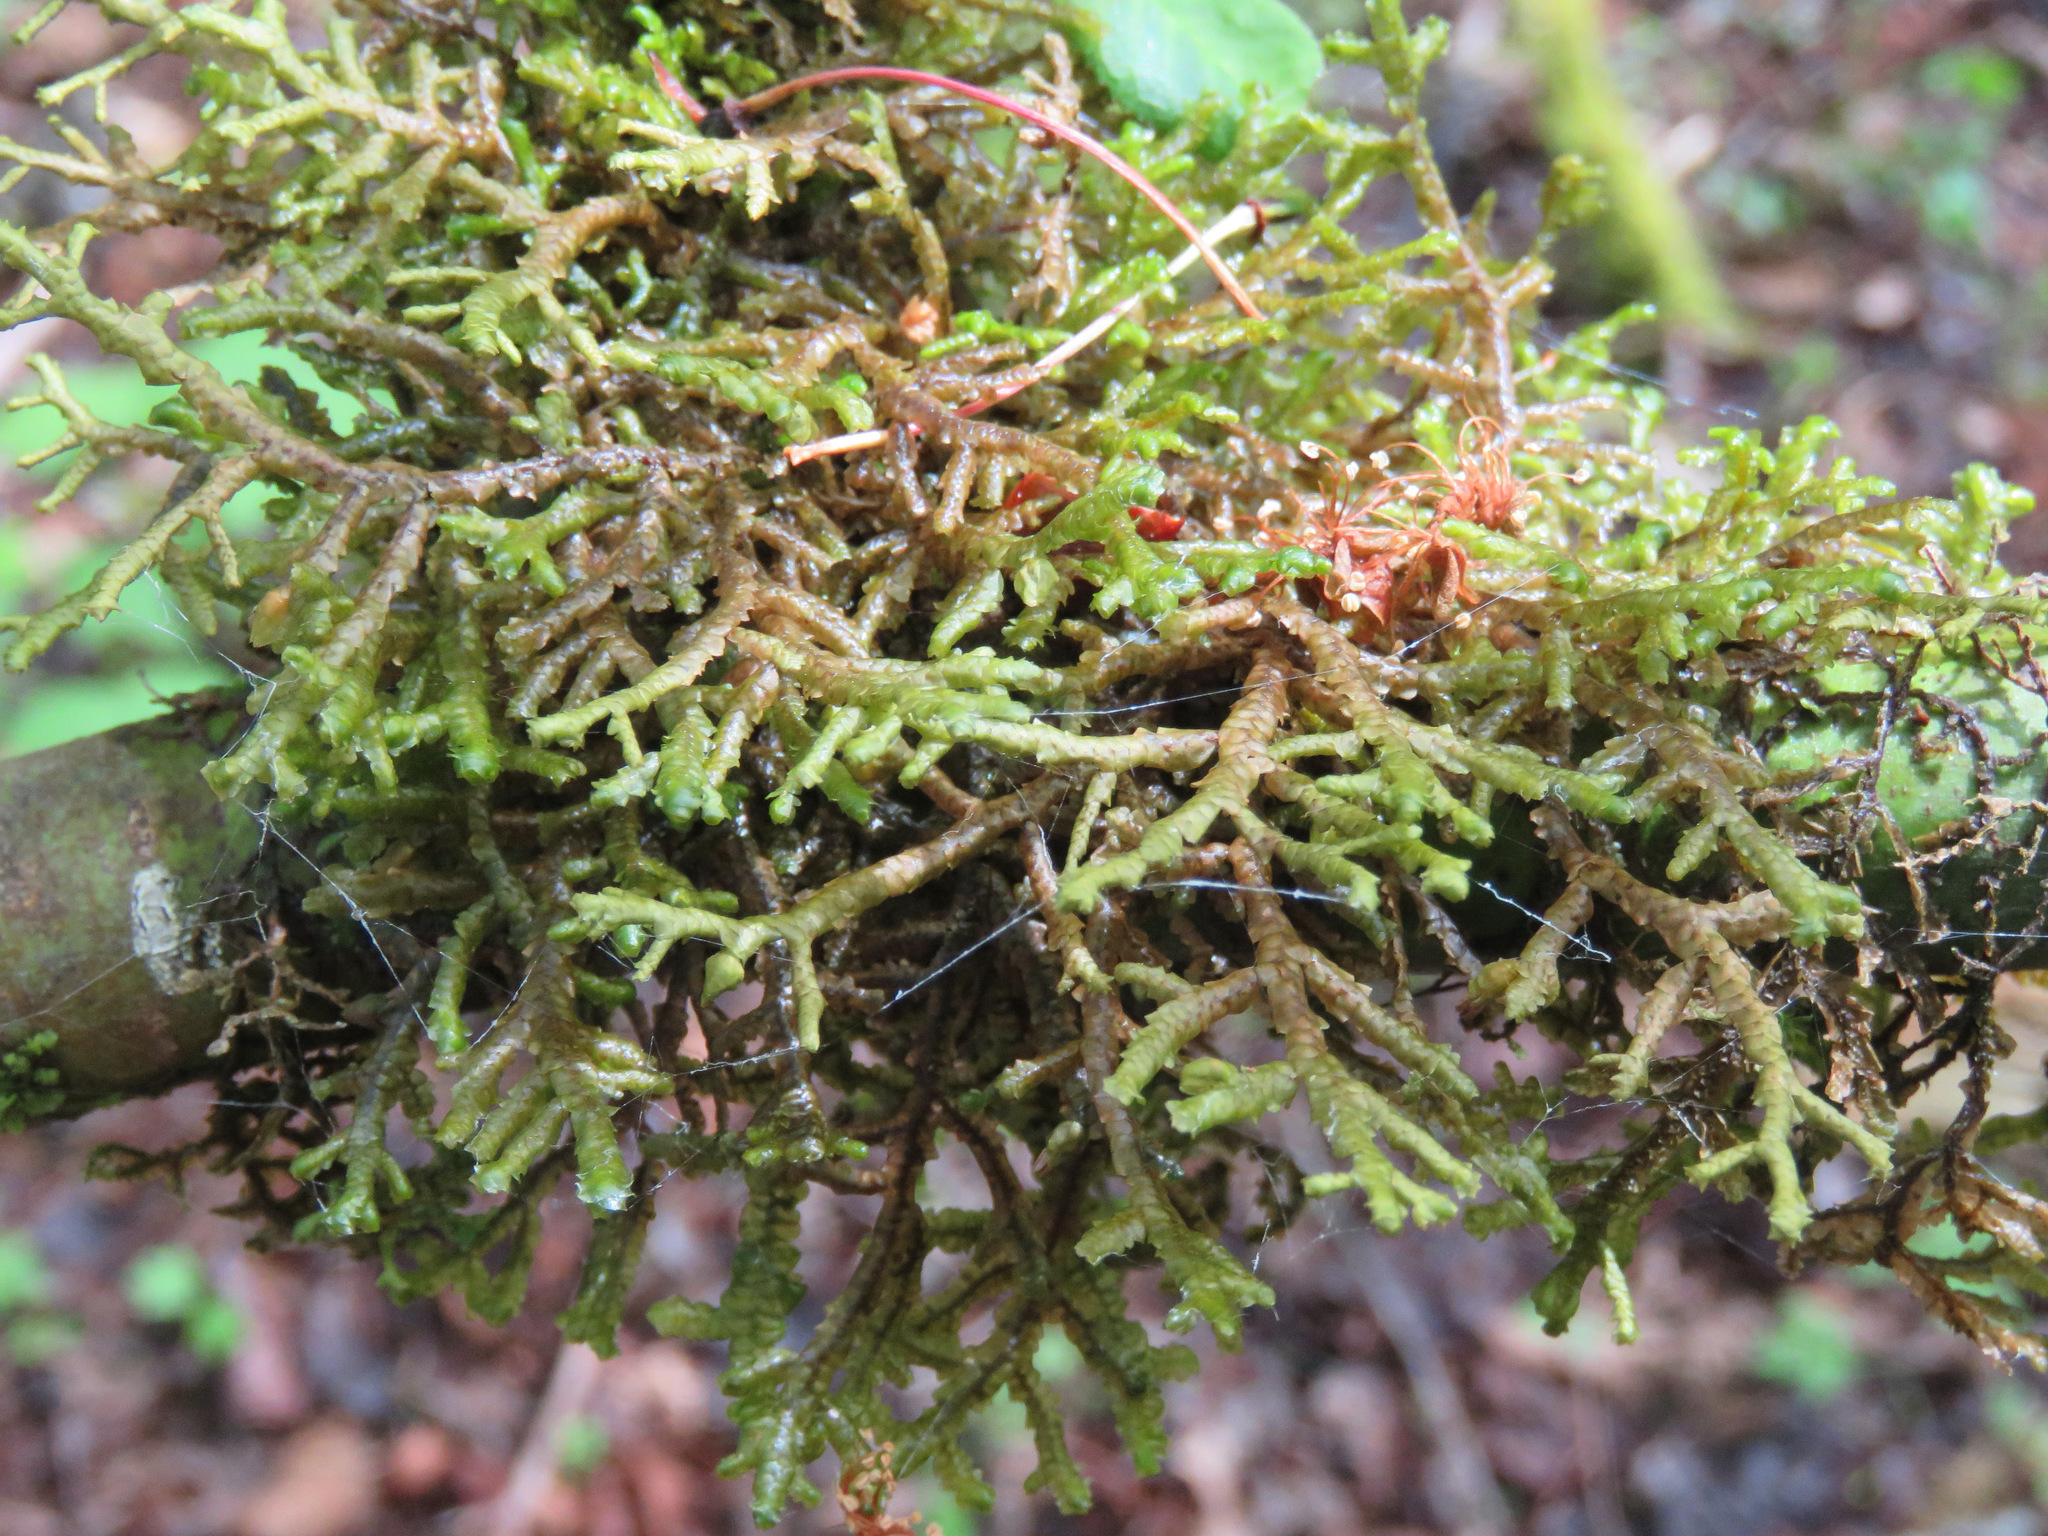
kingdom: Plantae
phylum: Marchantiophyta
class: Jungermanniopsida
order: Porellales
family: Porellaceae
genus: Porella
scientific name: Porella navicularis
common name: Tree ruffle liverwort
